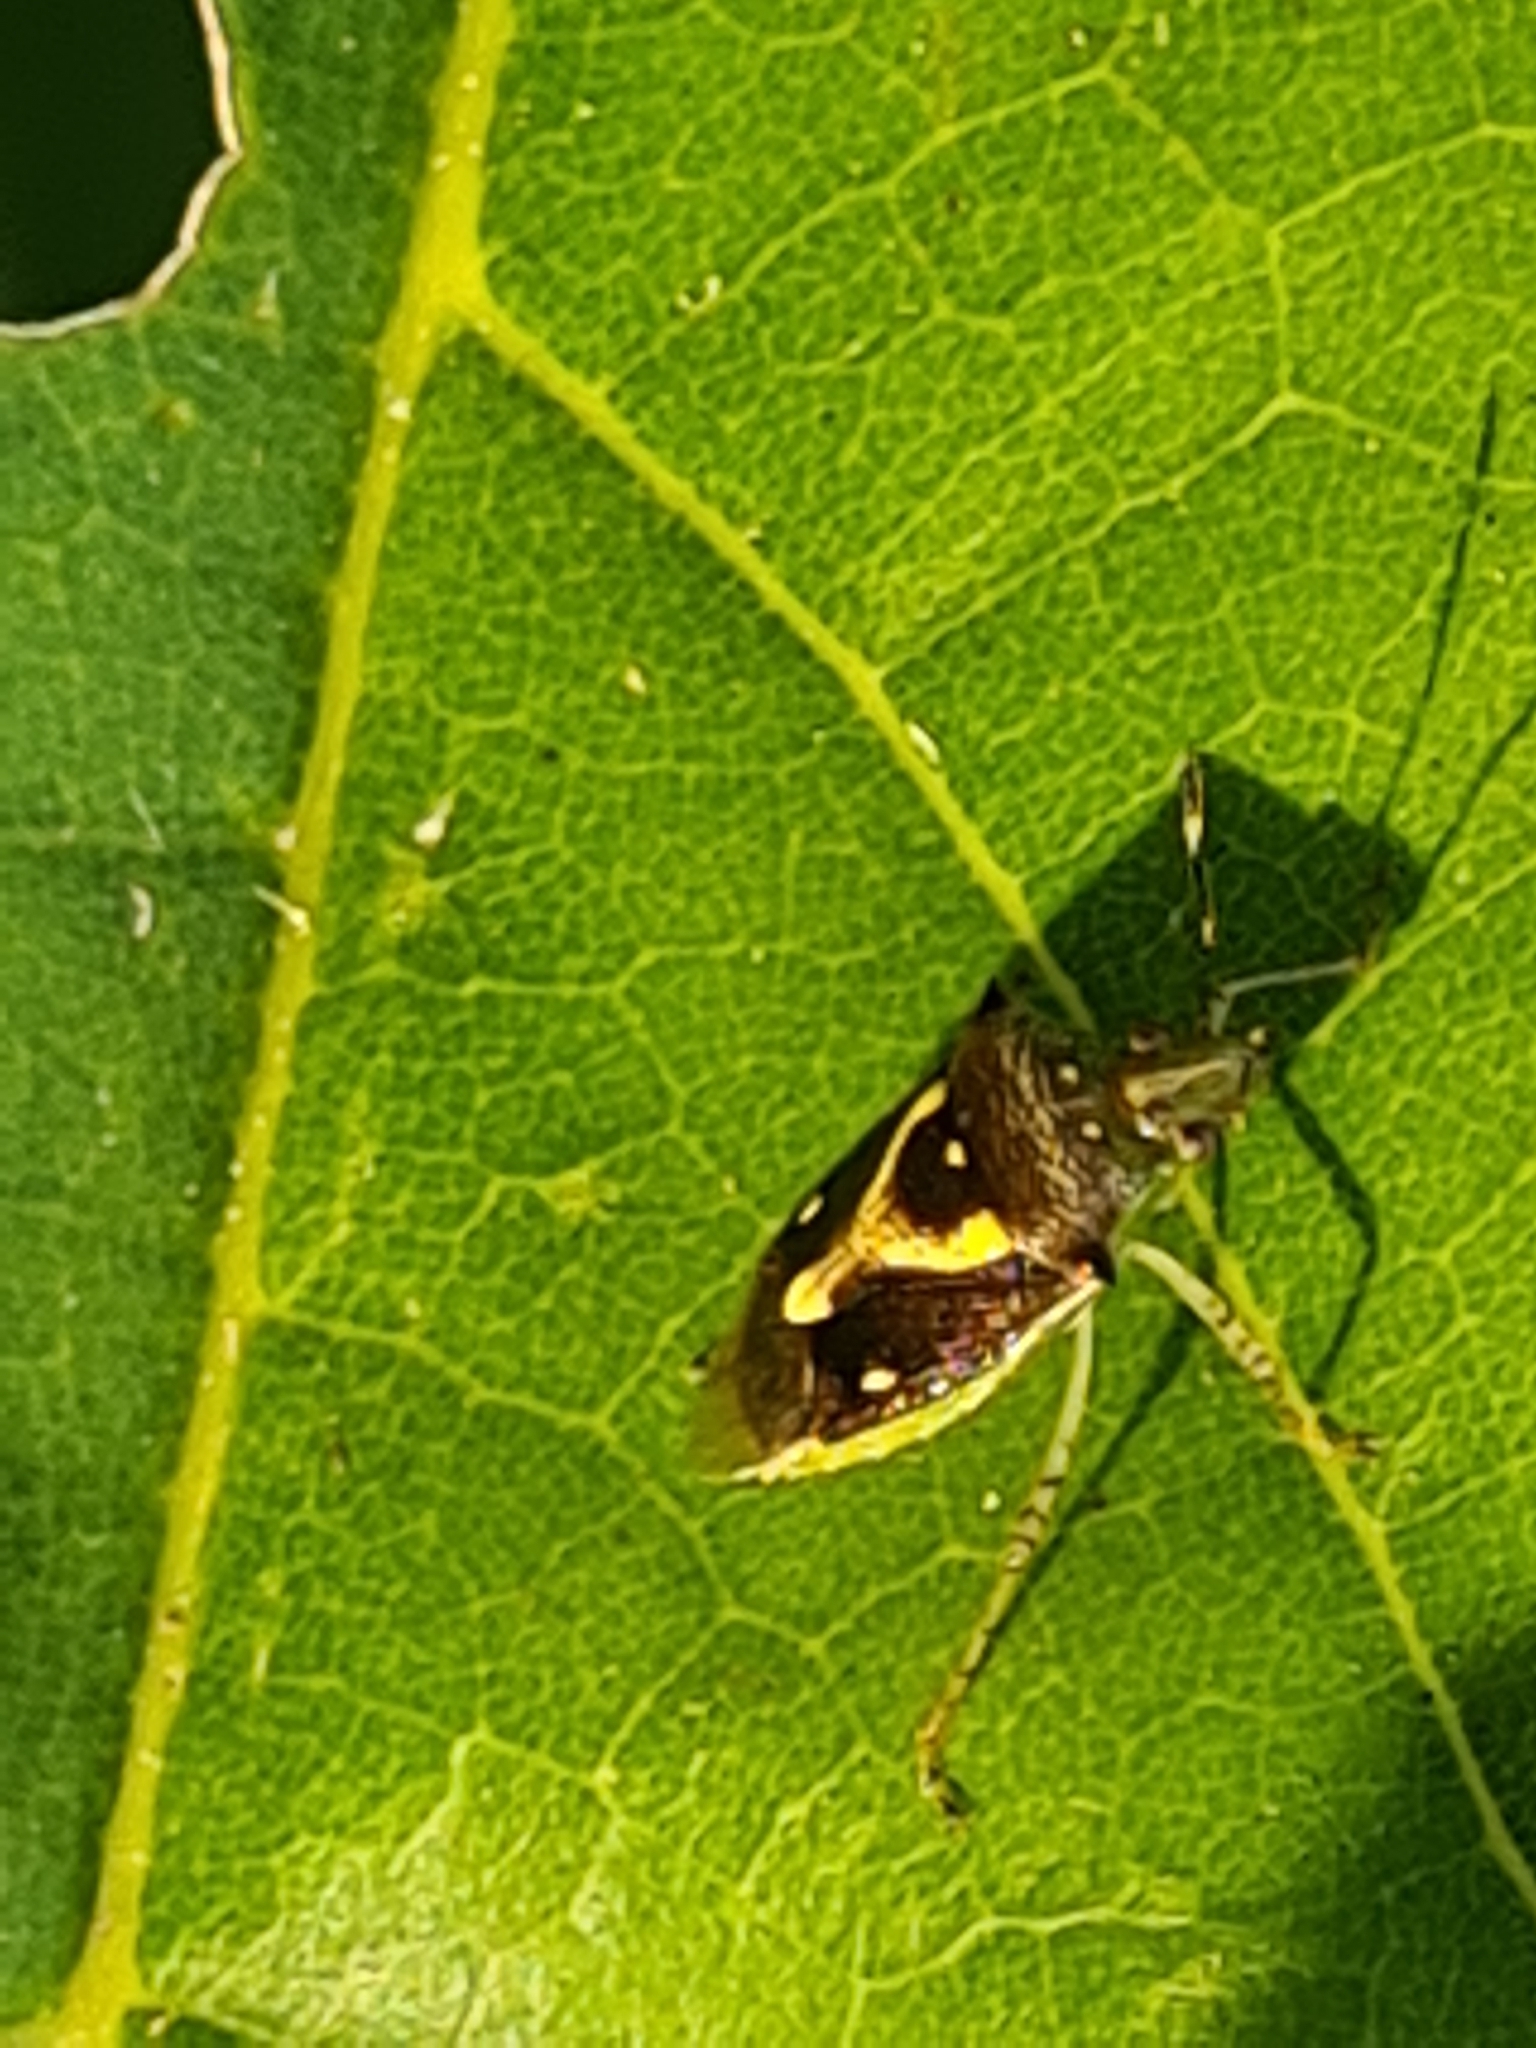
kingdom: Animalia
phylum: Arthropoda
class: Insecta
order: Hemiptera
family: Pentatomidae
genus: Mormidea
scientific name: Mormidea ypsilon
